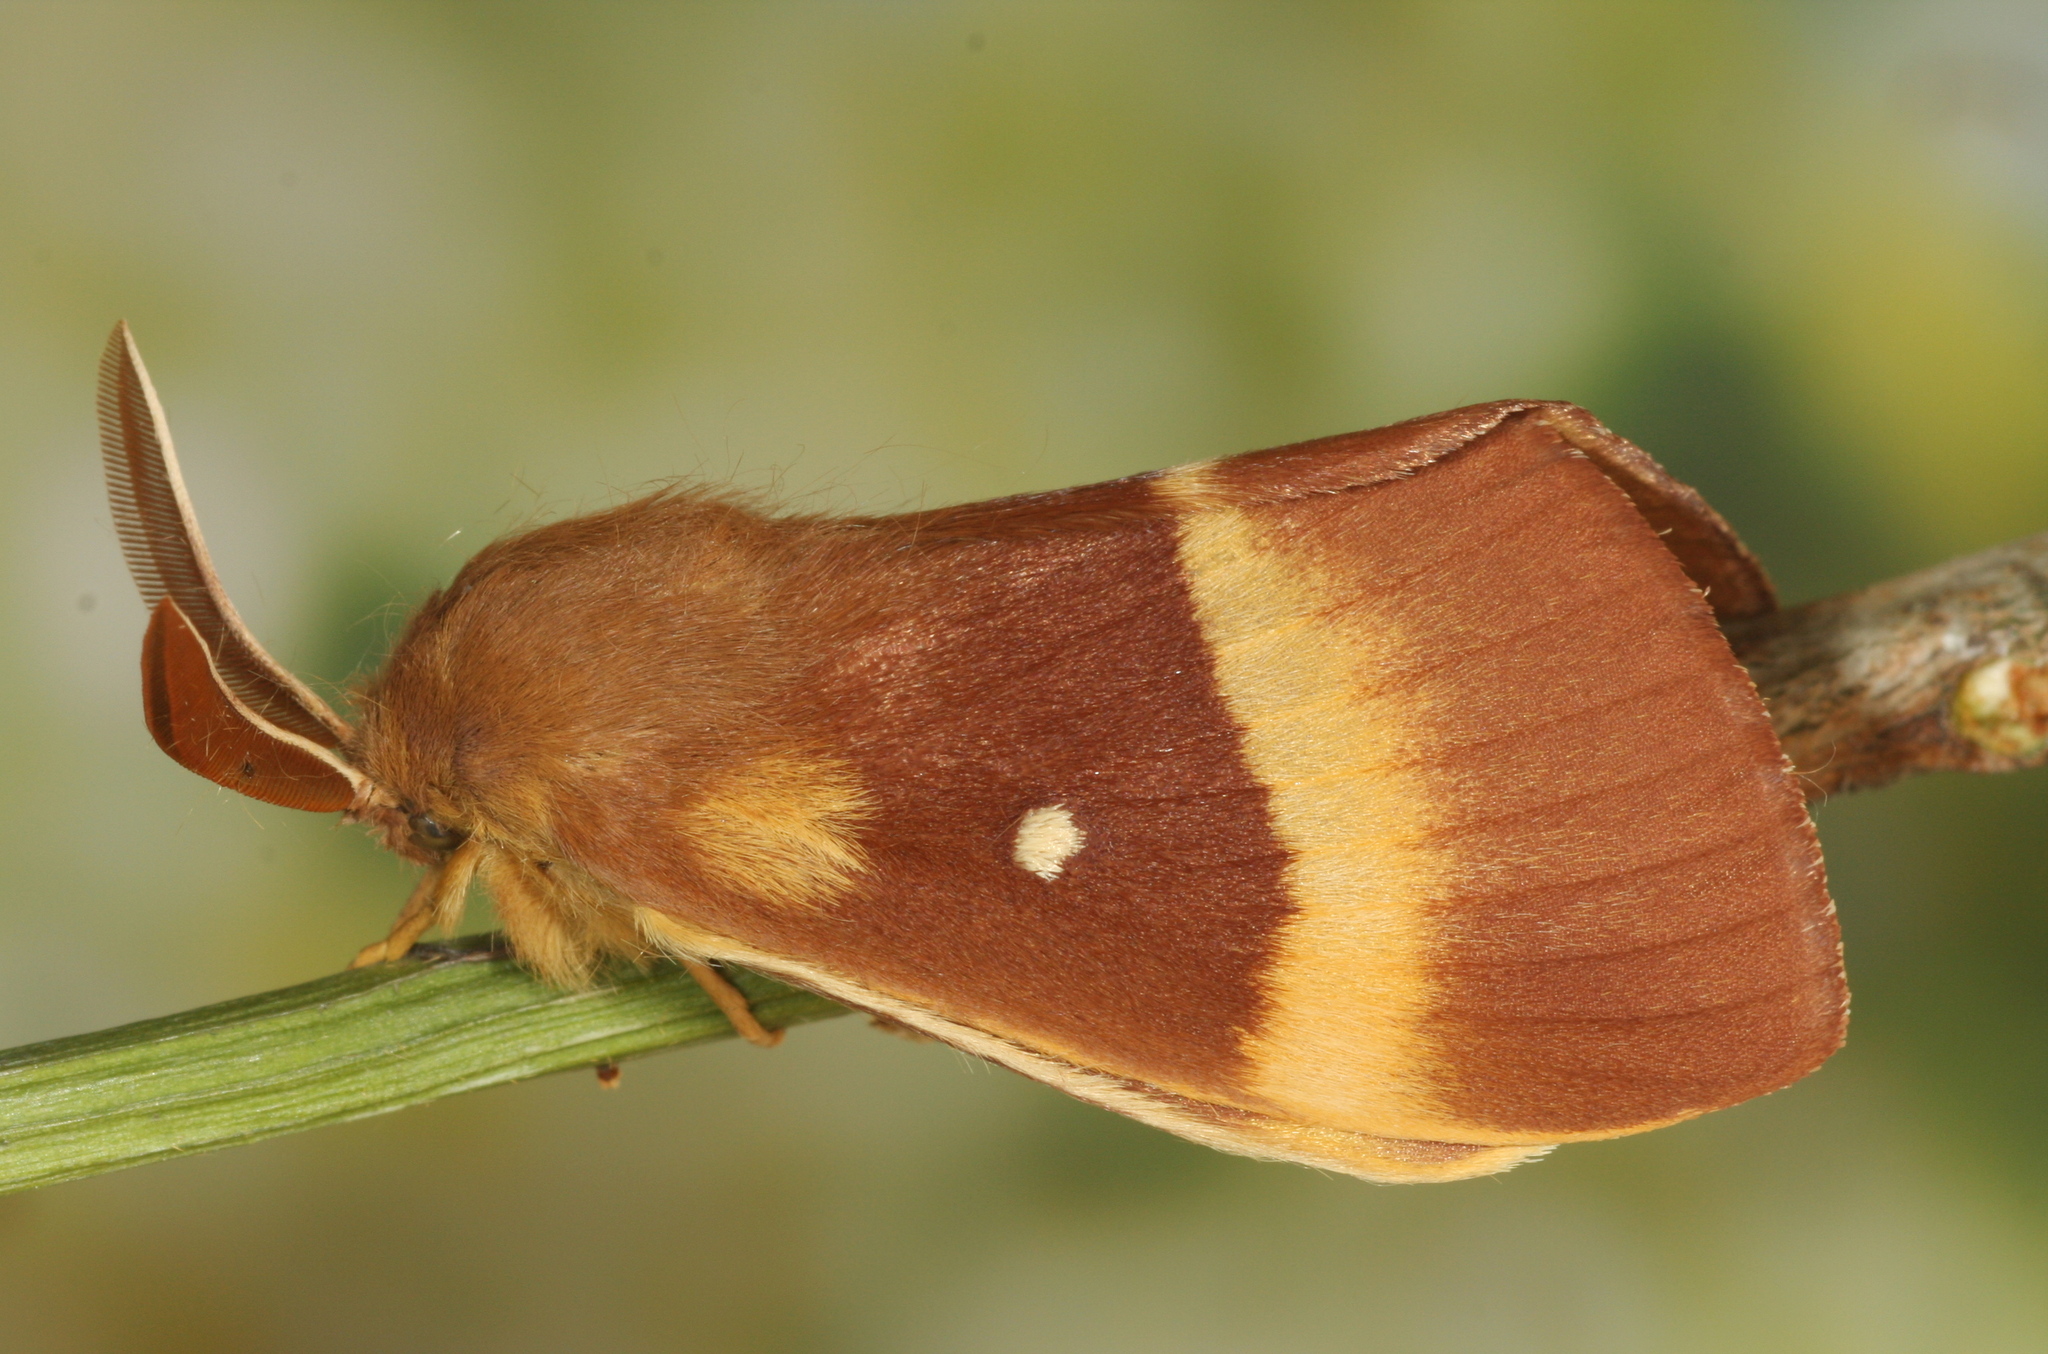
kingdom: Animalia
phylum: Arthropoda
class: Insecta
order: Lepidoptera
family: Lasiocampidae
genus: Lasiocampa
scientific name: Lasiocampa quercus
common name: Oak eggar
